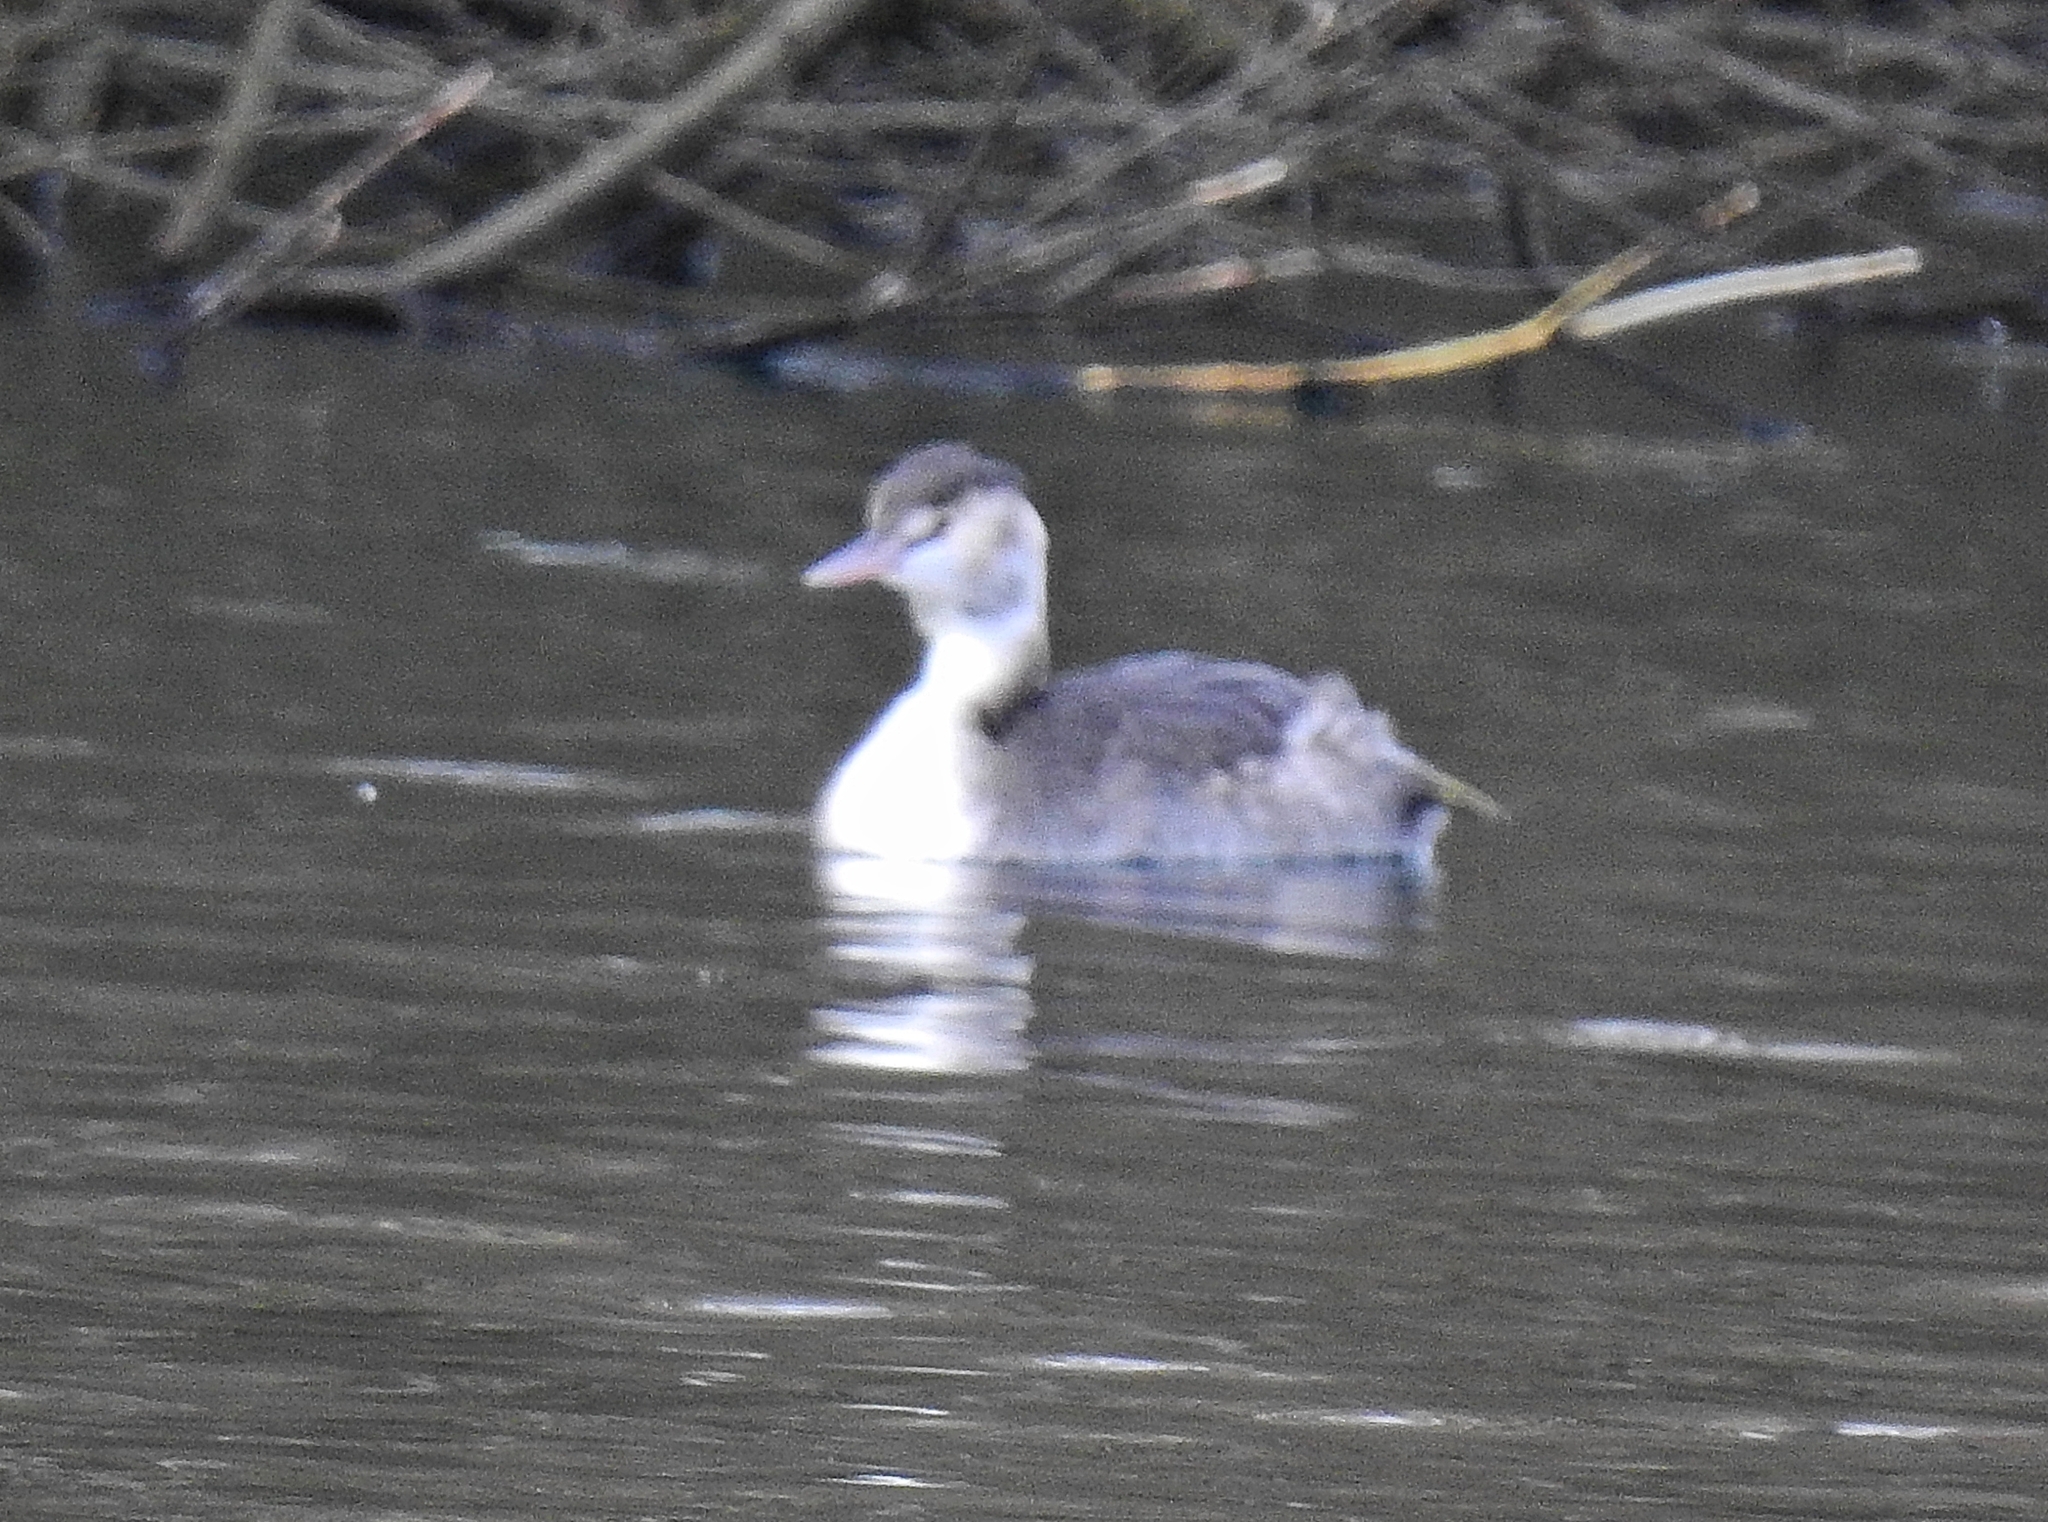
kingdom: Animalia
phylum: Chordata
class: Aves
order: Podicipediformes
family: Podicipedidae
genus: Podiceps
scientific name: Podiceps cristatus
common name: Great crested grebe
